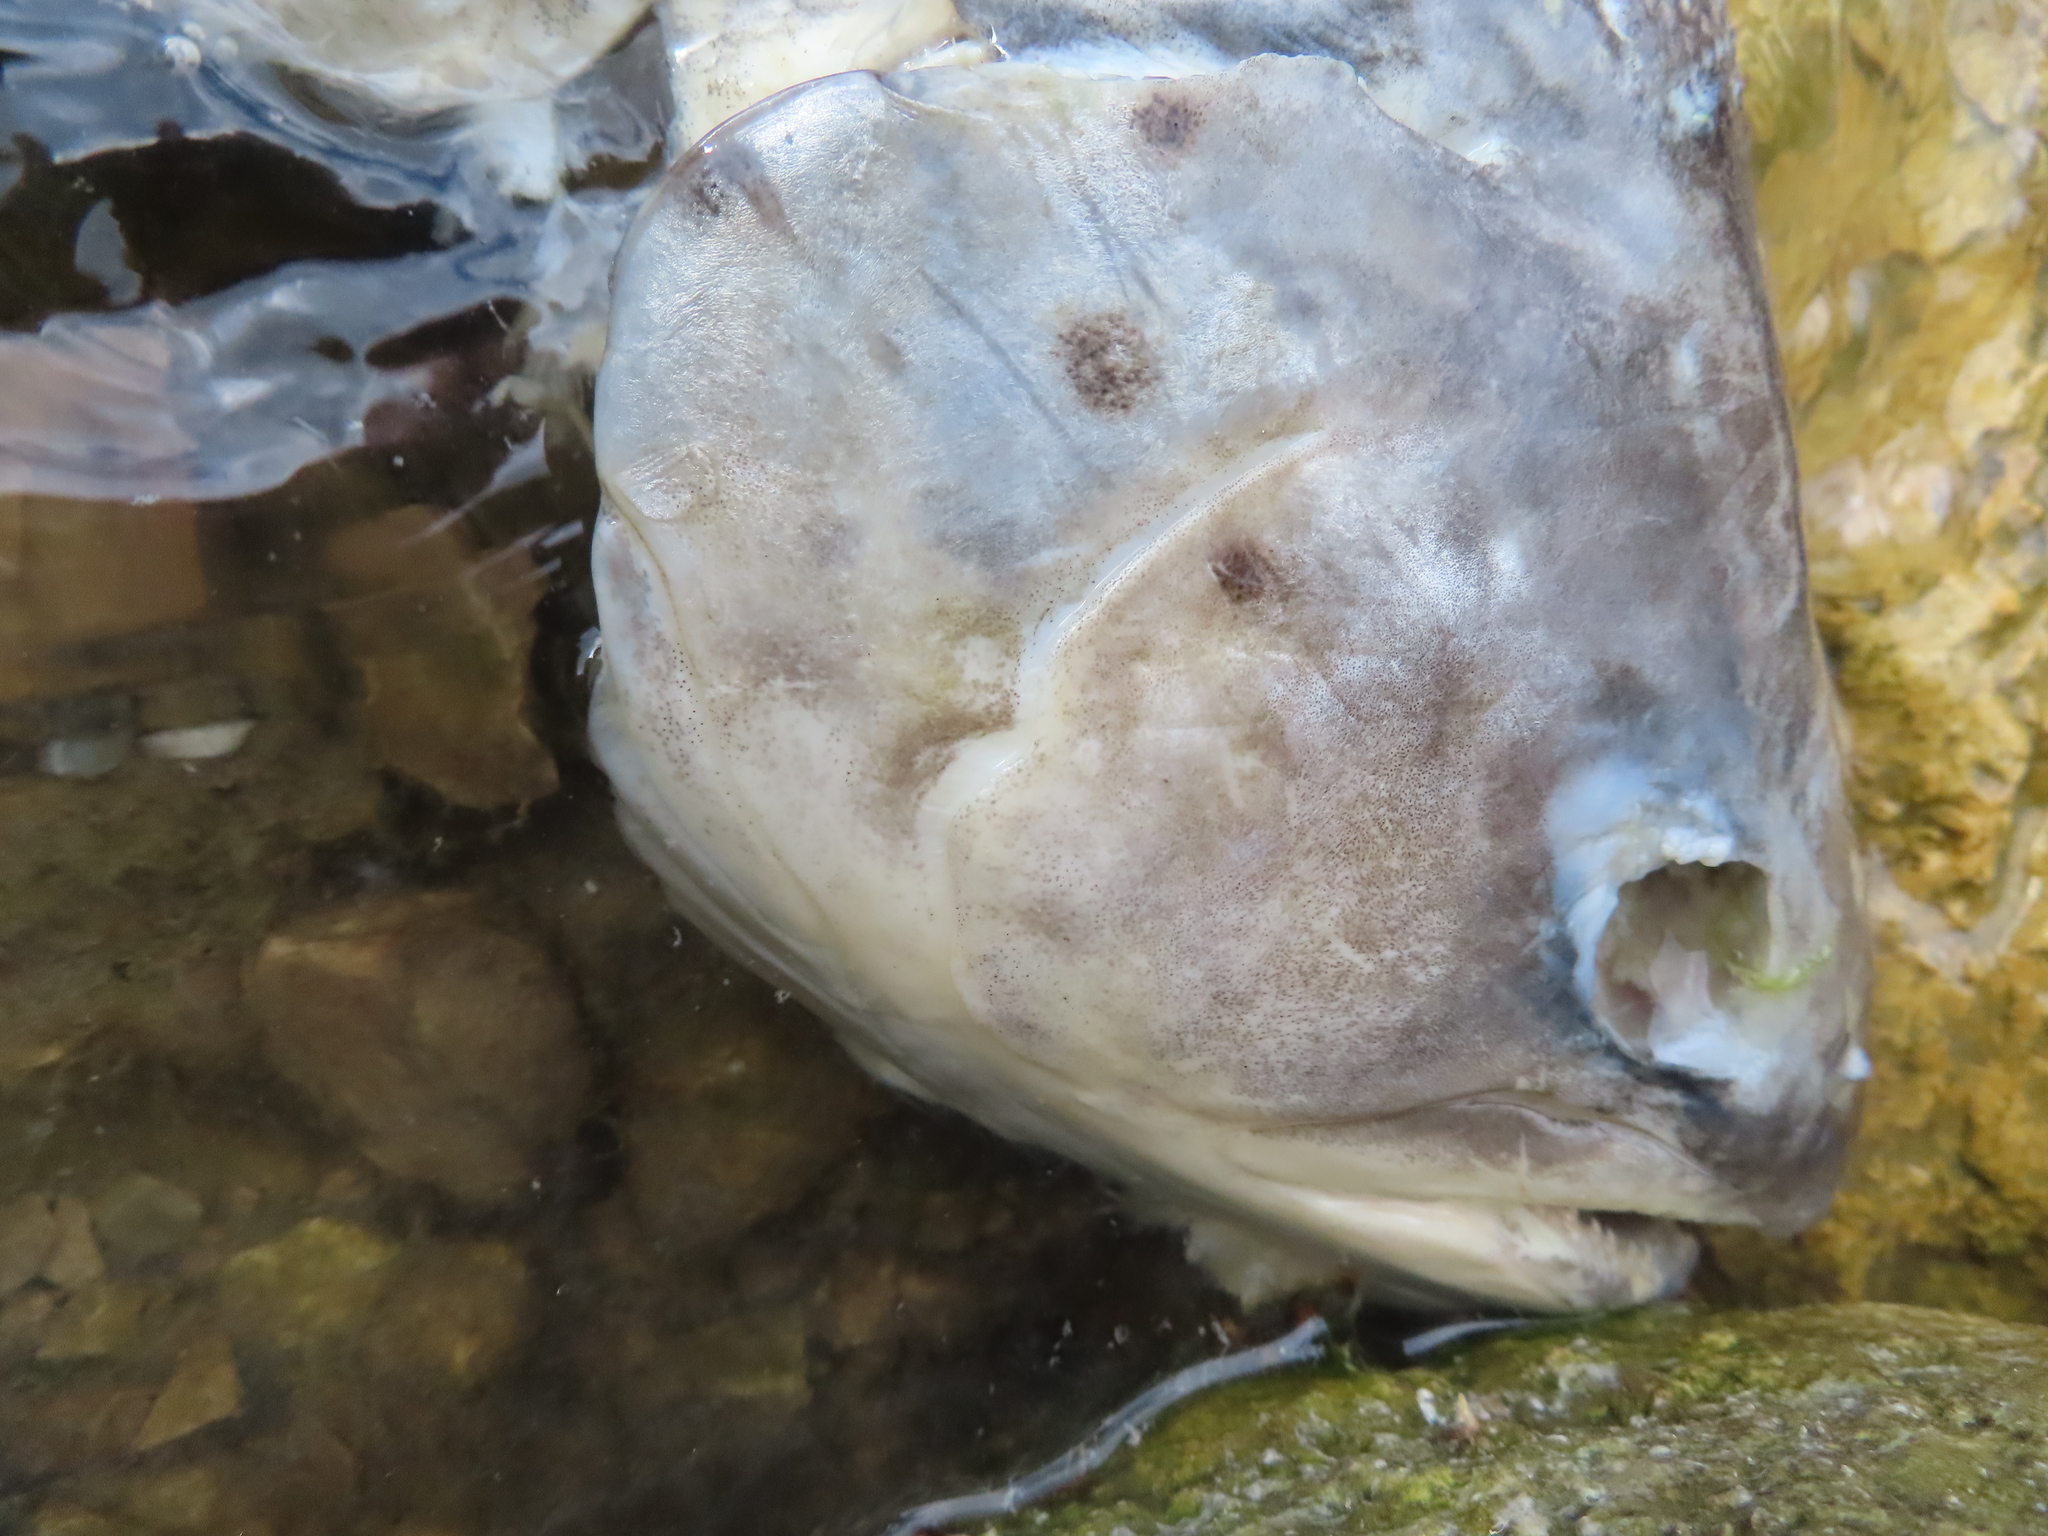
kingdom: Animalia
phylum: Chordata
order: Salmoniformes
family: Salmonidae
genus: Salmo
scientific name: Salmo trutta
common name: Brown trout
